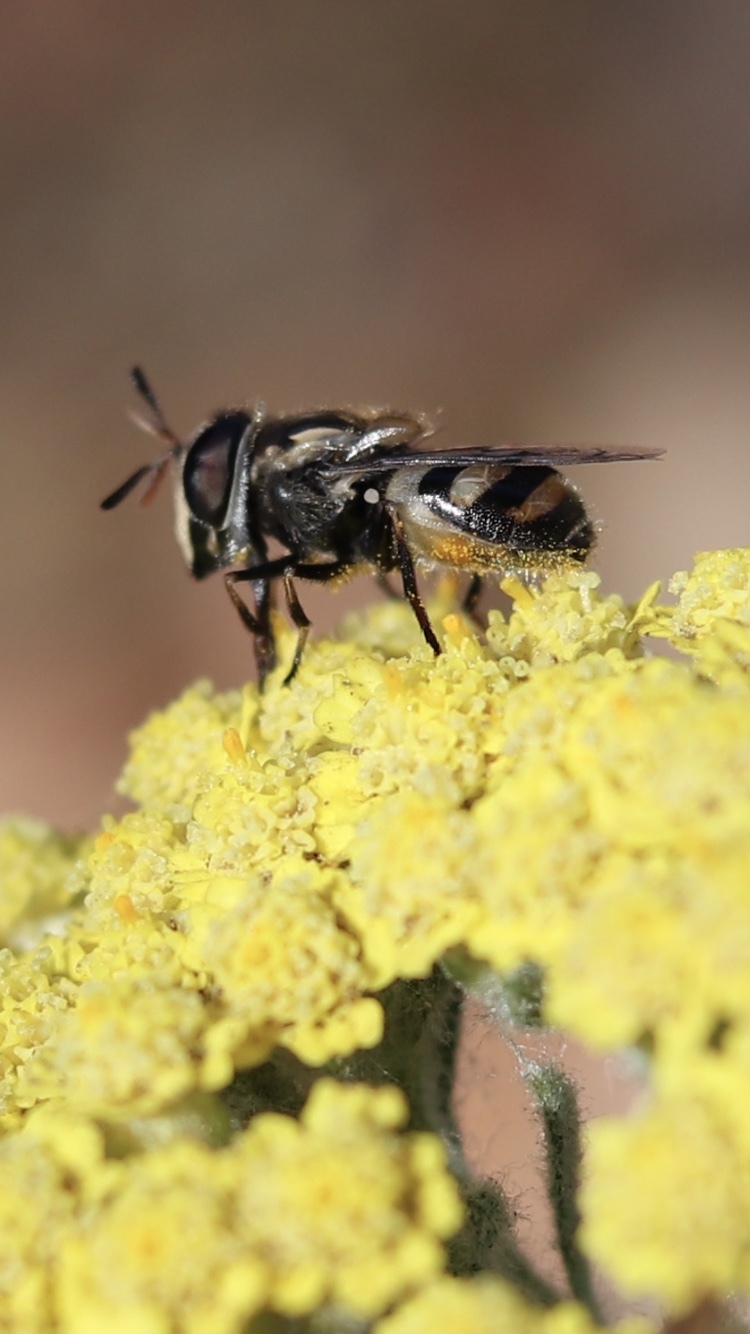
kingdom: Animalia
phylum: Arthropoda
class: Insecta
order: Diptera
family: Syrphidae
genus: Copestylum
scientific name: Copestylum marginatum
